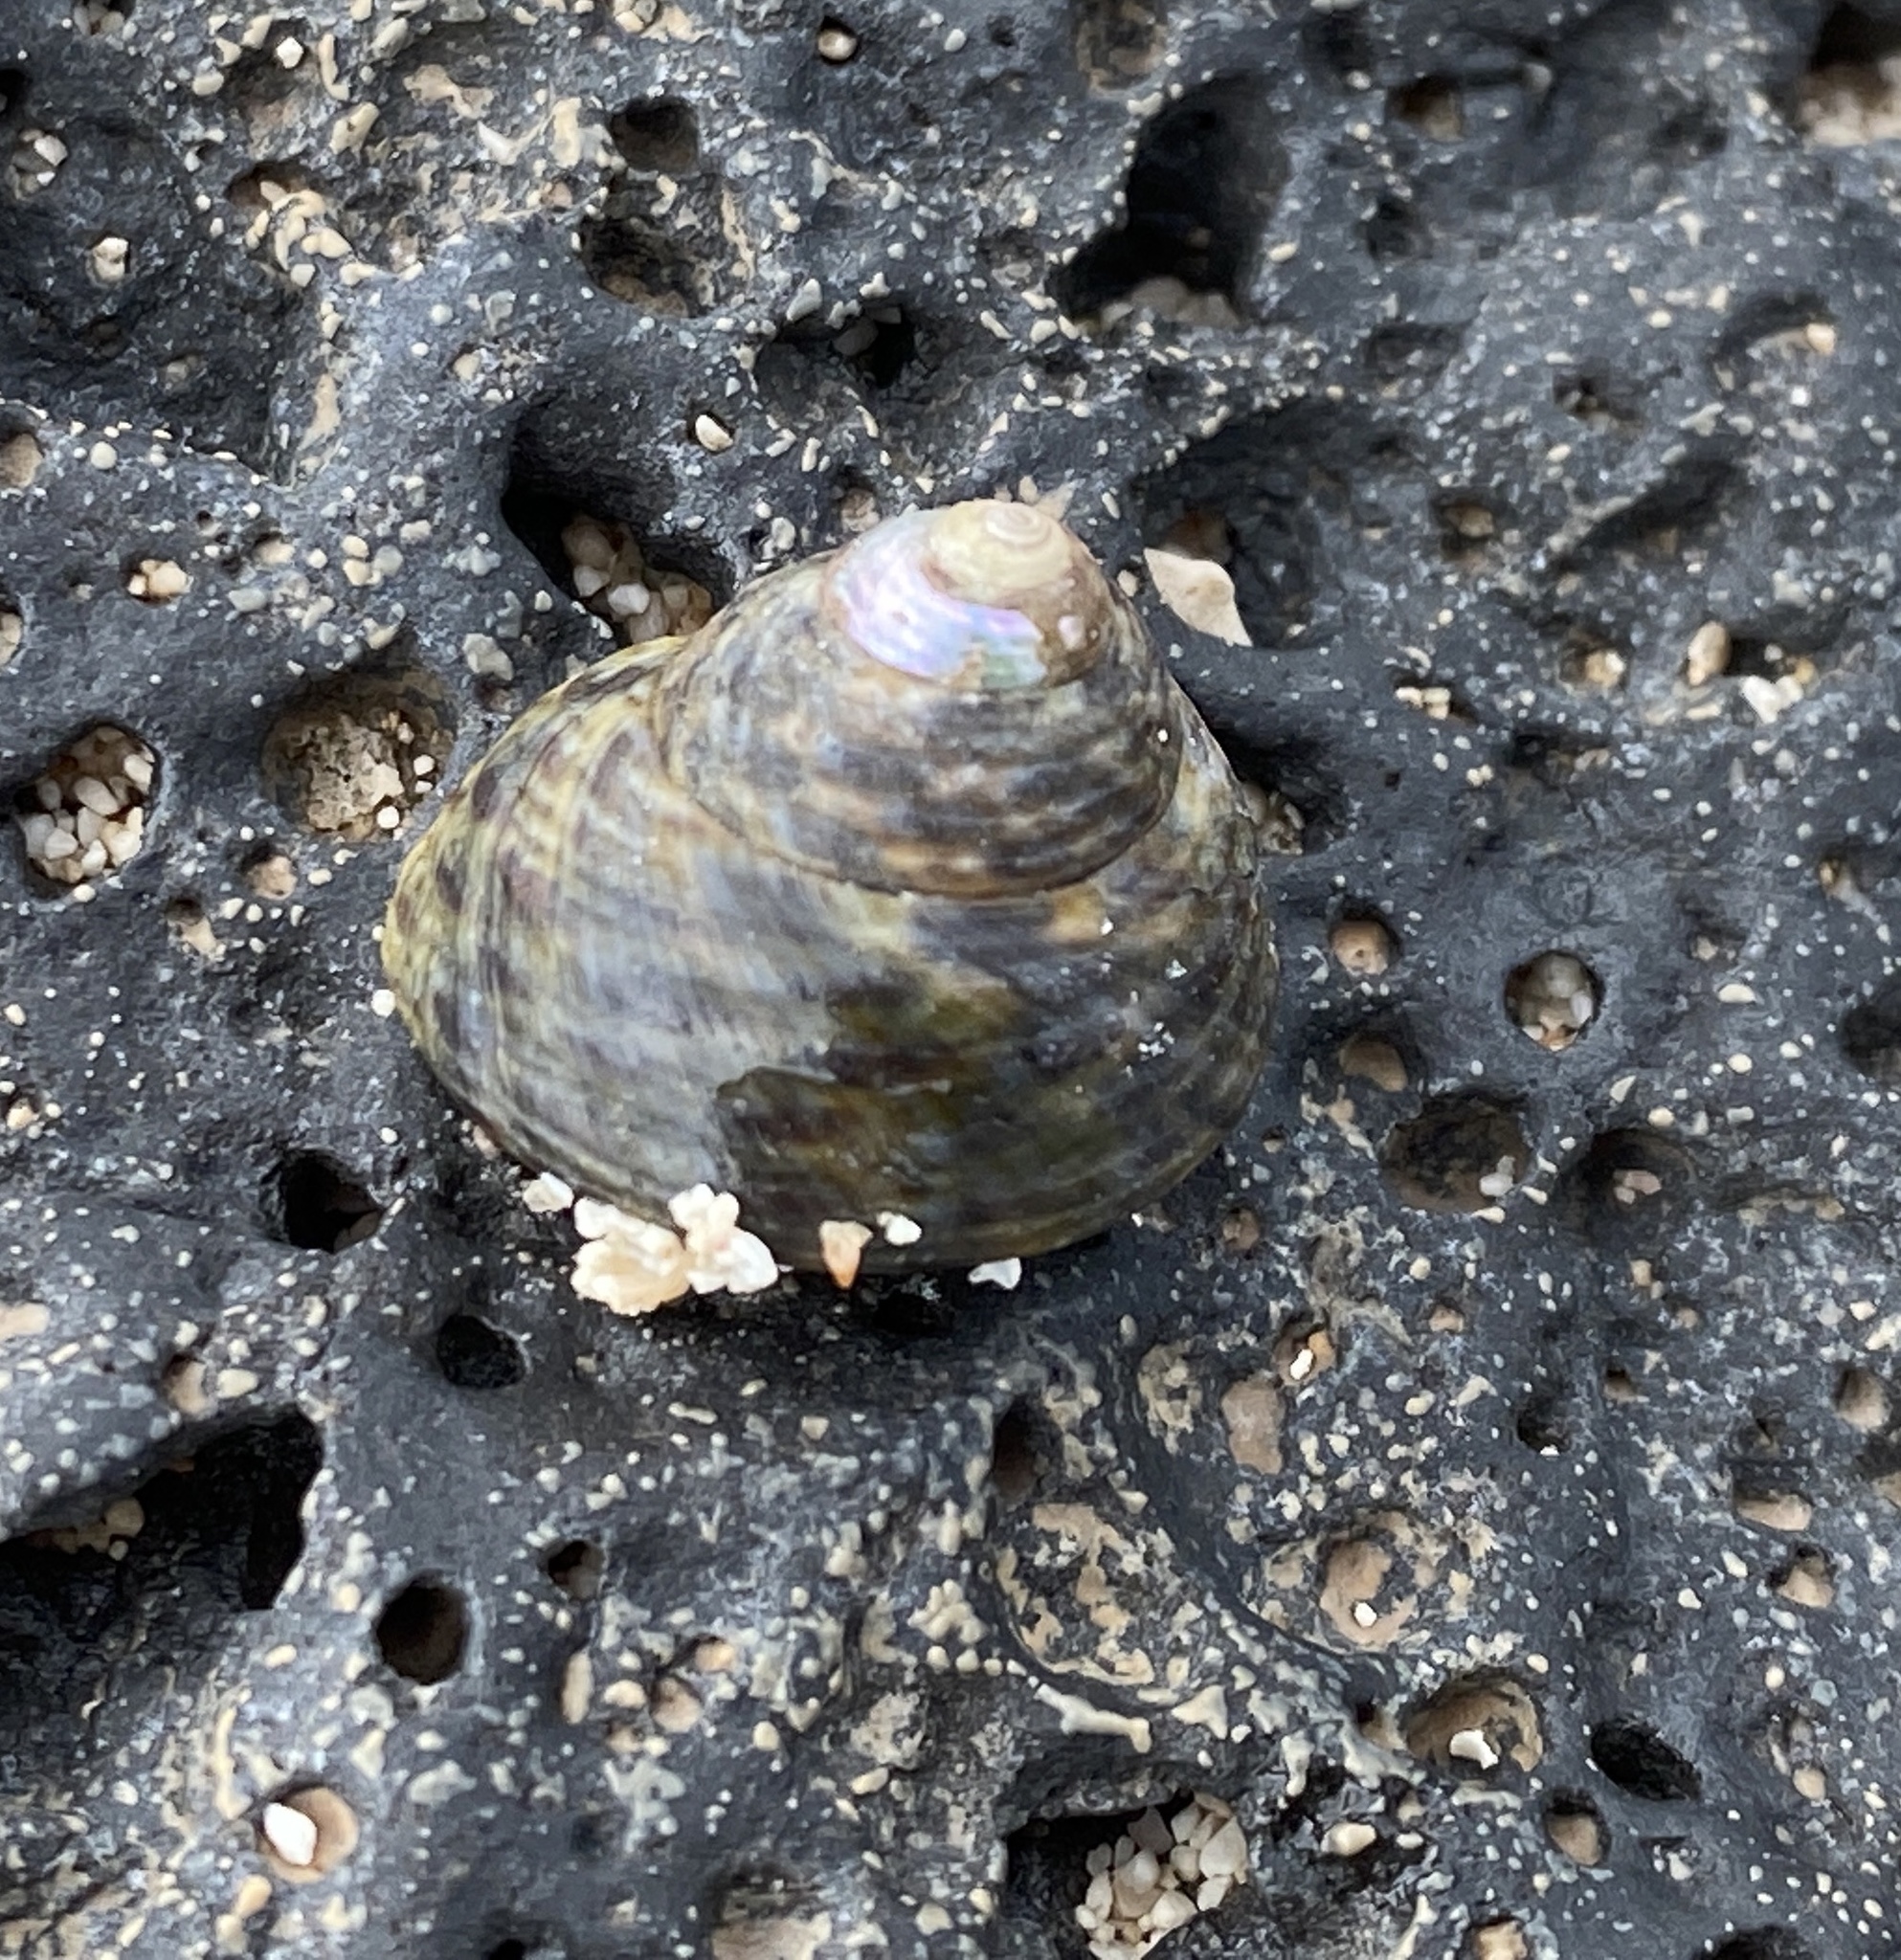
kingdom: Animalia
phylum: Mollusca
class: Gastropoda
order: Trochida
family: Trochidae
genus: Phorcus
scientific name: Phorcus sauciatus
